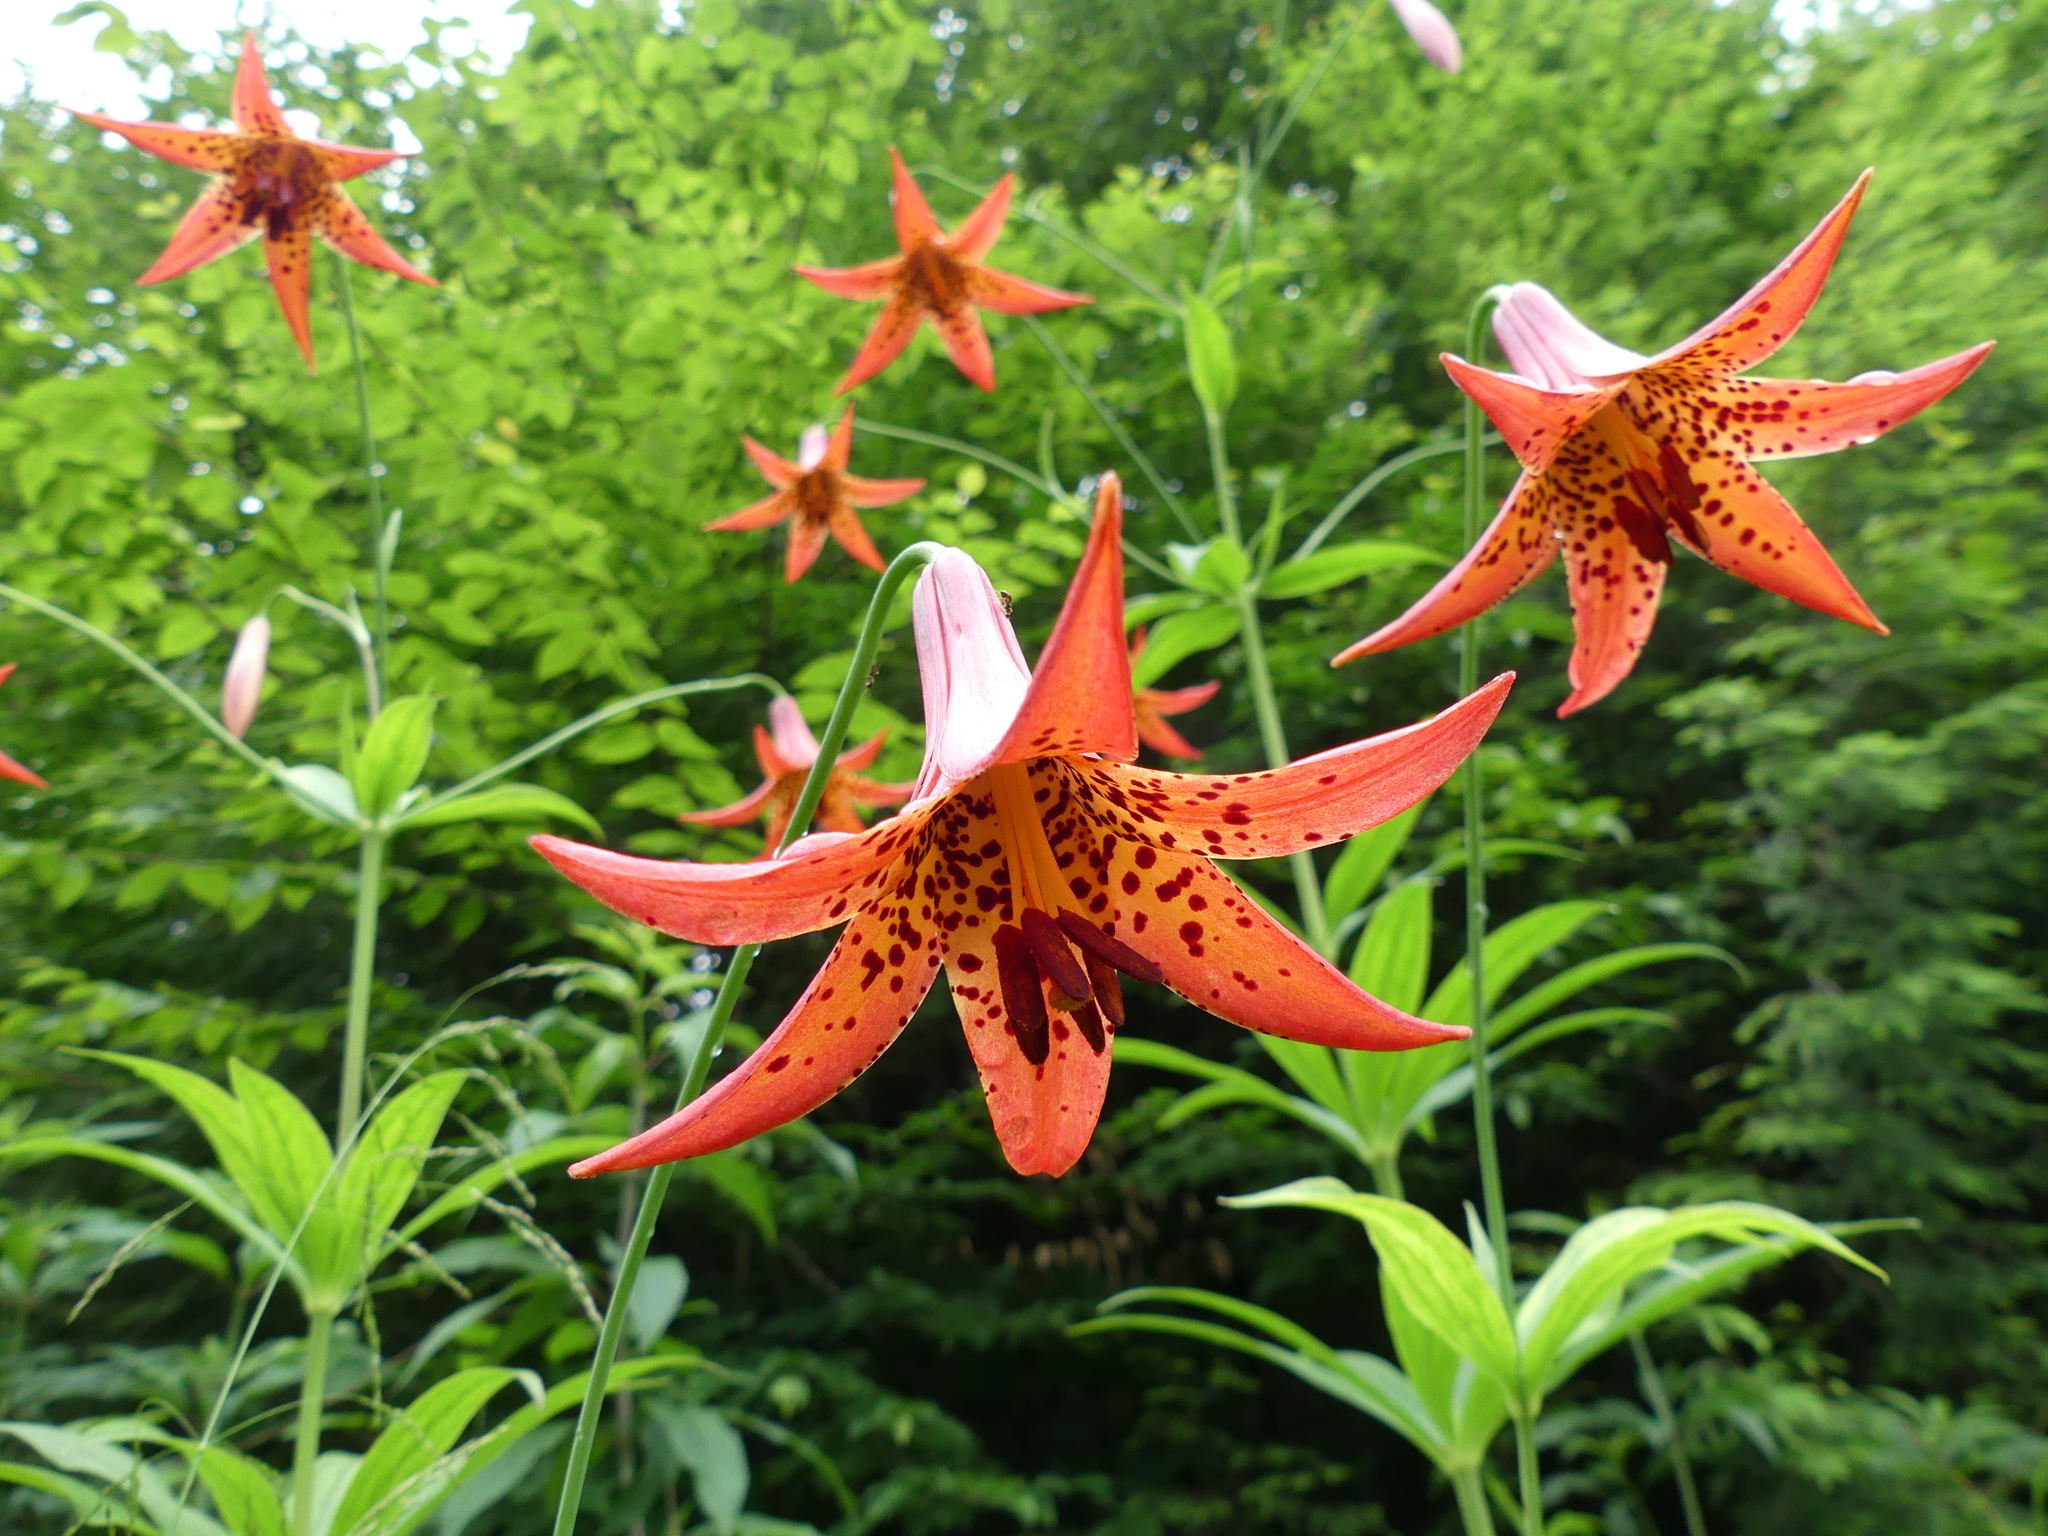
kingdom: Plantae
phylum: Tracheophyta
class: Liliopsida
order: Liliales
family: Liliaceae
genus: Lilium
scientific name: Lilium canadense
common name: Canada lily
